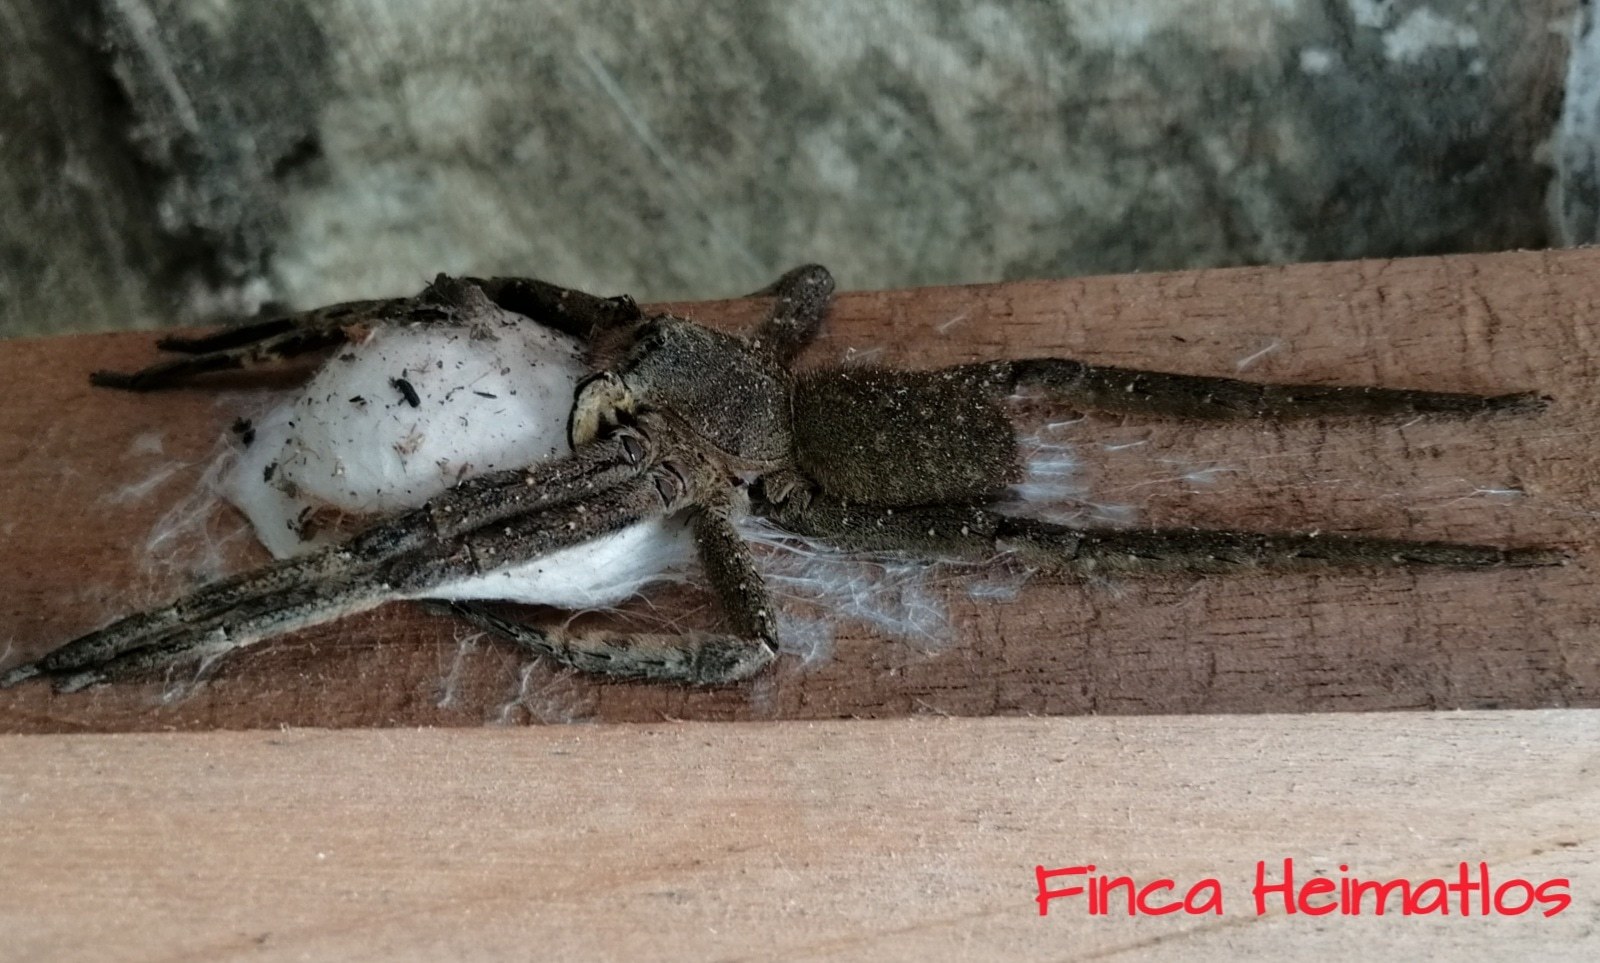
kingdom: Animalia
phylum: Arthropoda
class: Arachnida
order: Araneae
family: Ctenidae
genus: Phoneutria
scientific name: Phoneutria fera
